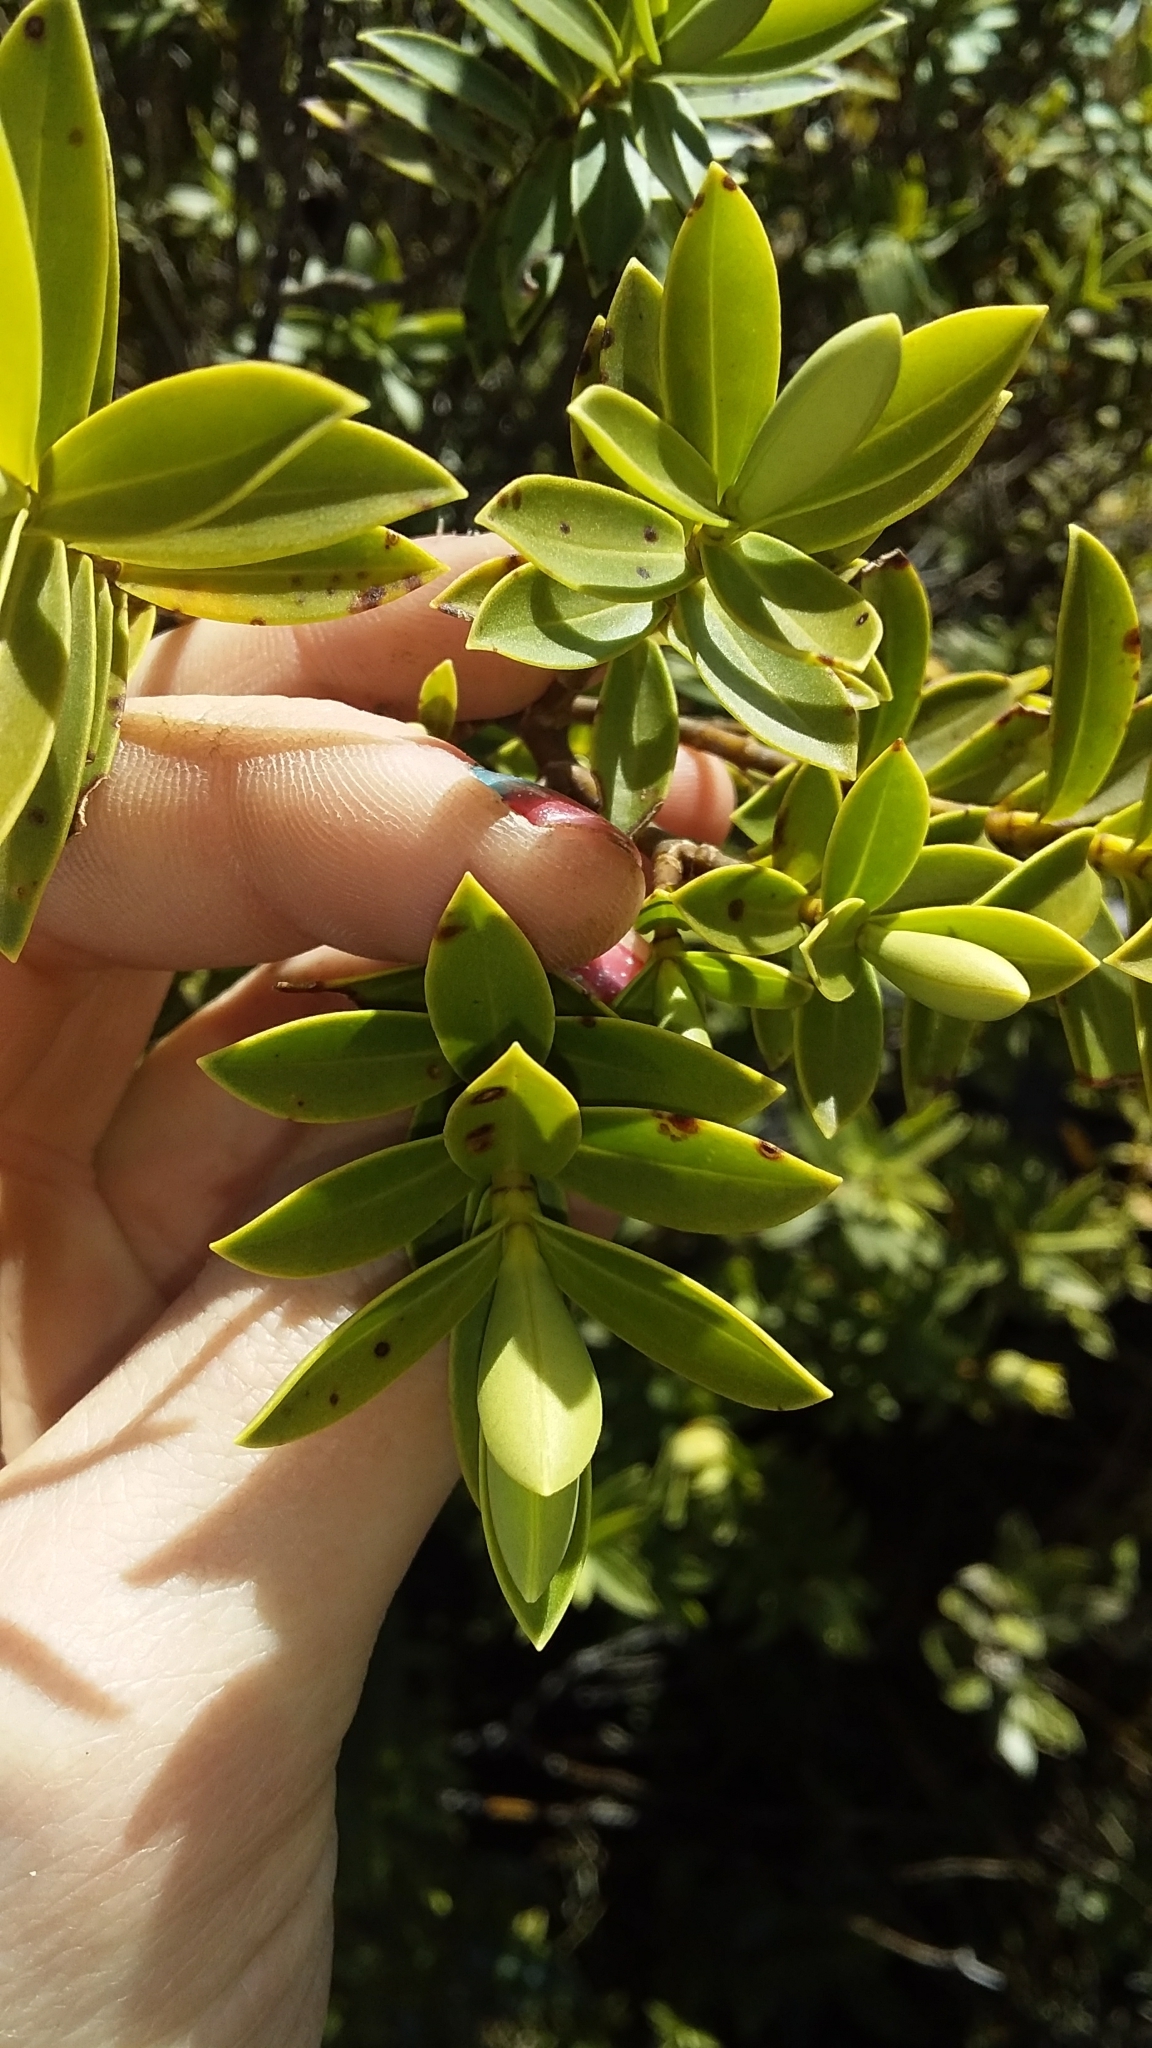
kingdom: Plantae
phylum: Tracheophyta
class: Magnoliopsida
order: Lamiales
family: Plantaginaceae
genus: Veronica
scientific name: Veronica subfulvida
